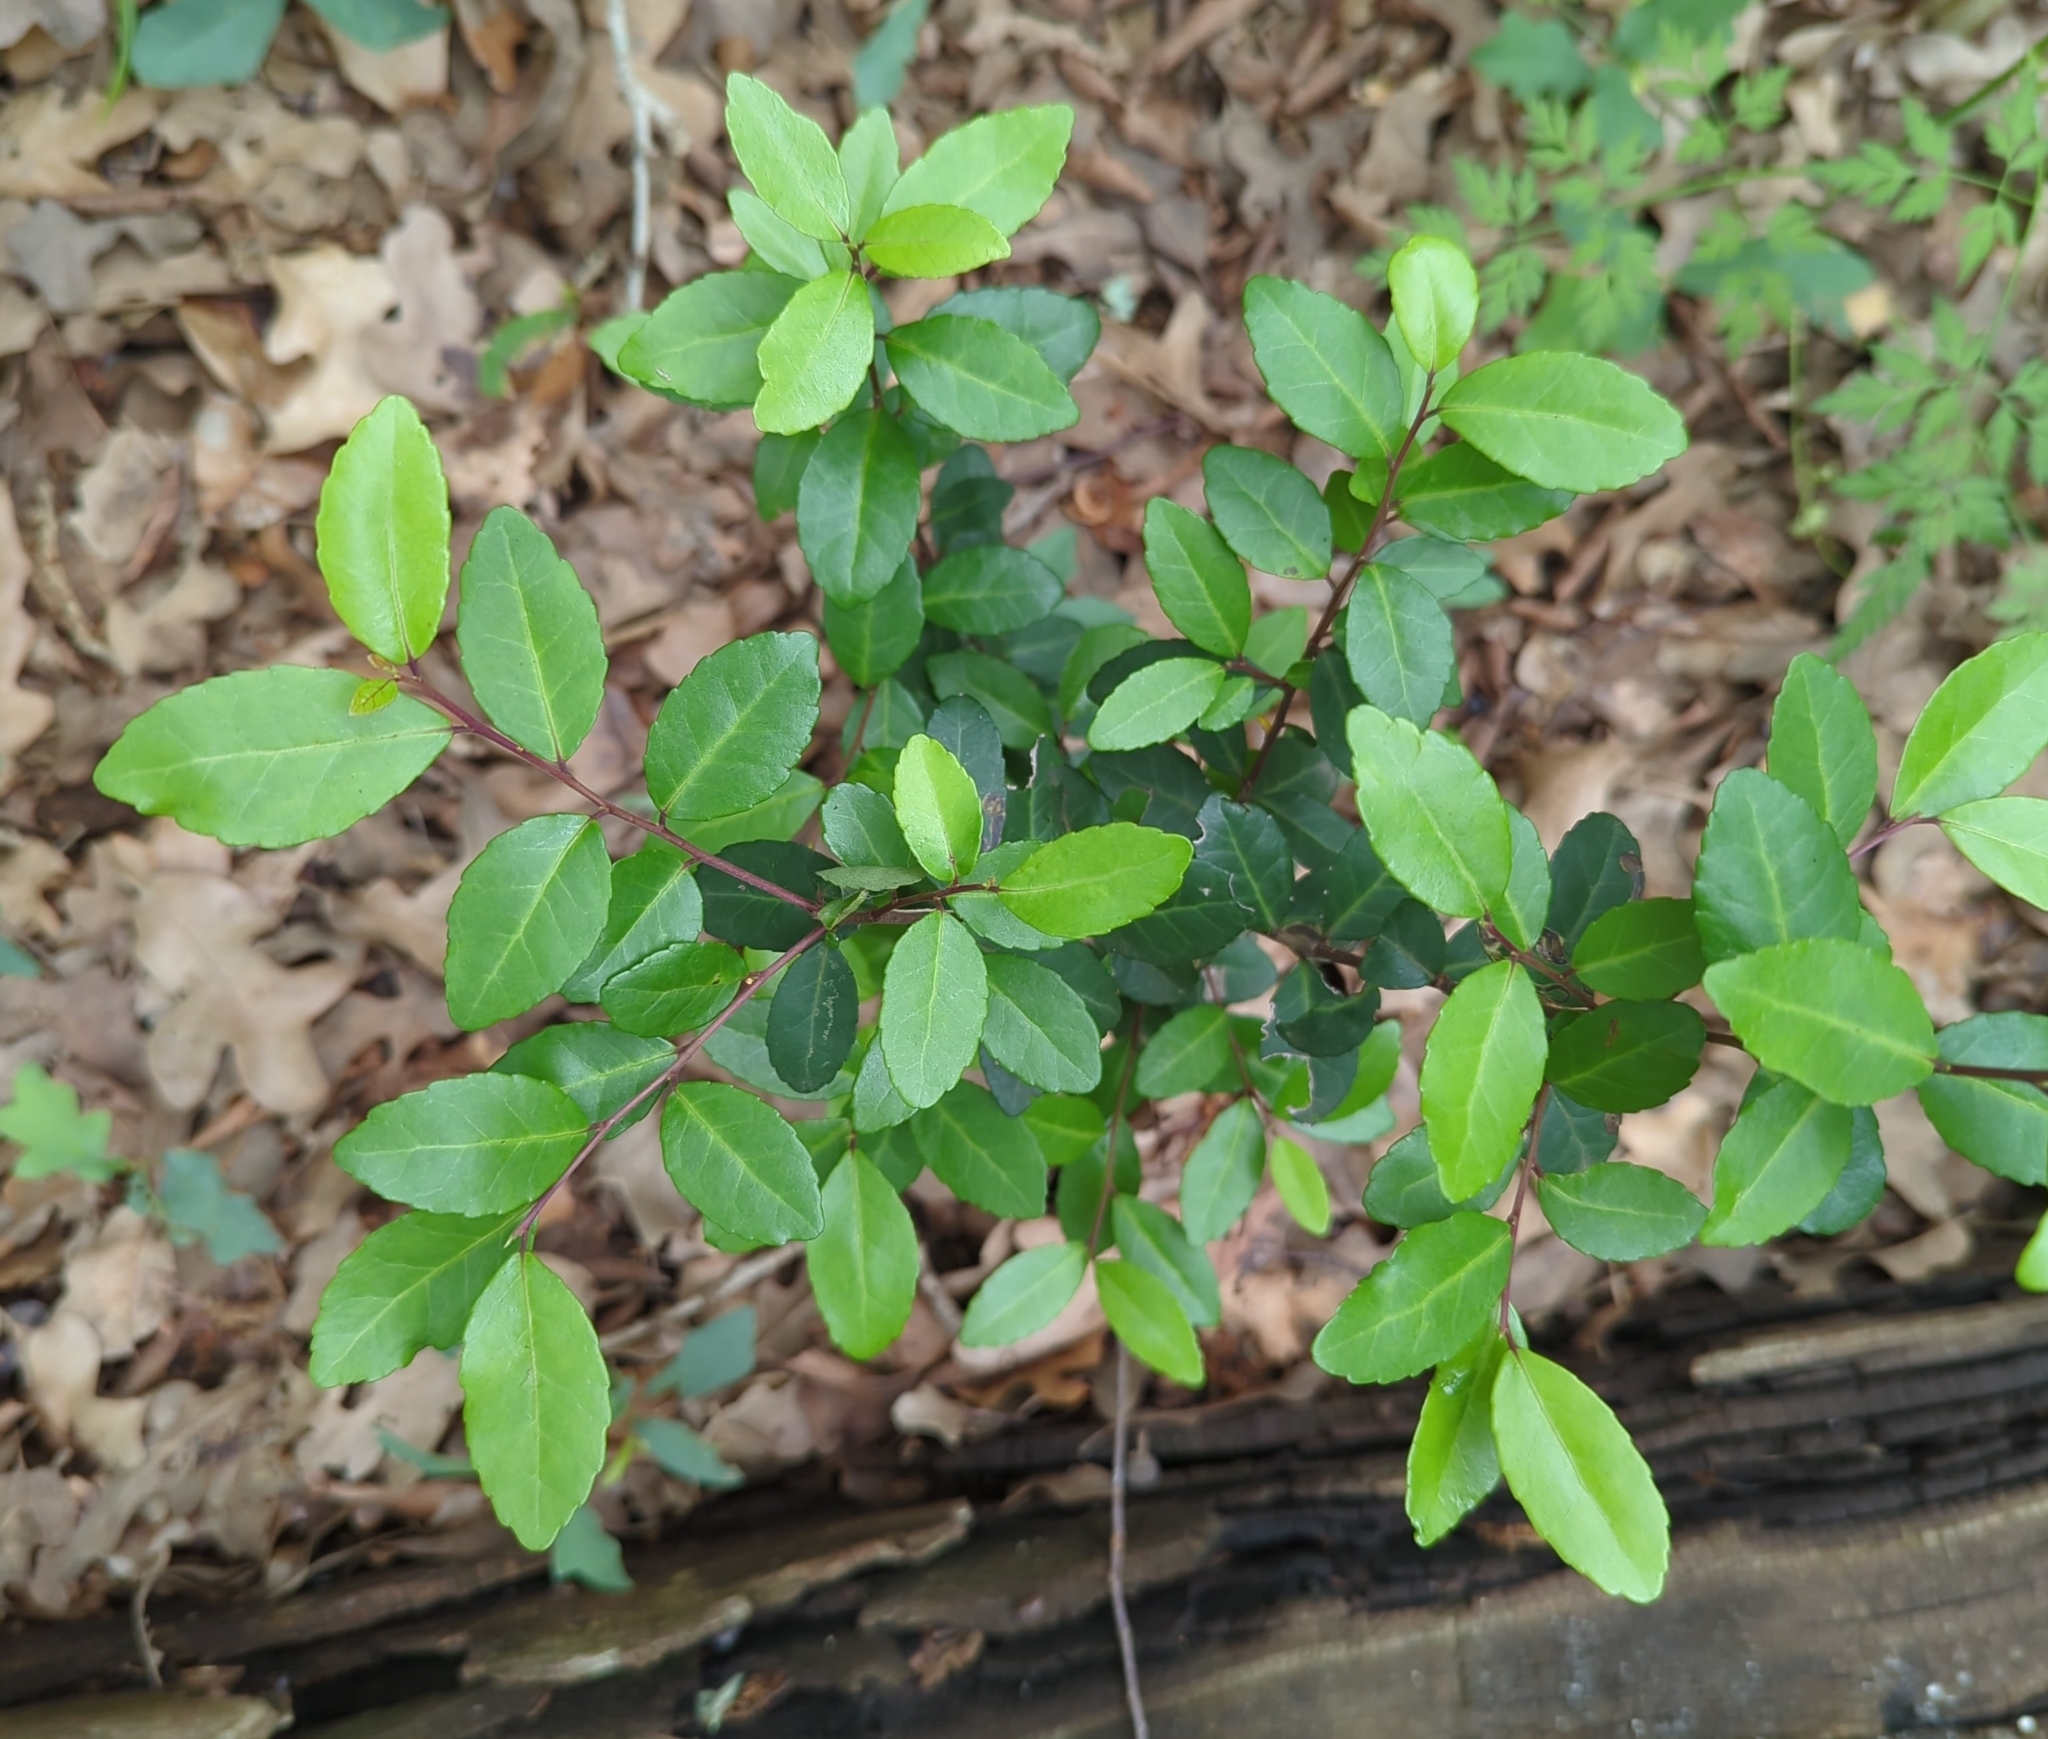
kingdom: Plantae
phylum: Tracheophyta
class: Magnoliopsida
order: Aquifoliales
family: Aquifoliaceae
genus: Ilex
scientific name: Ilex vomitoria
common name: Yaupon holly
